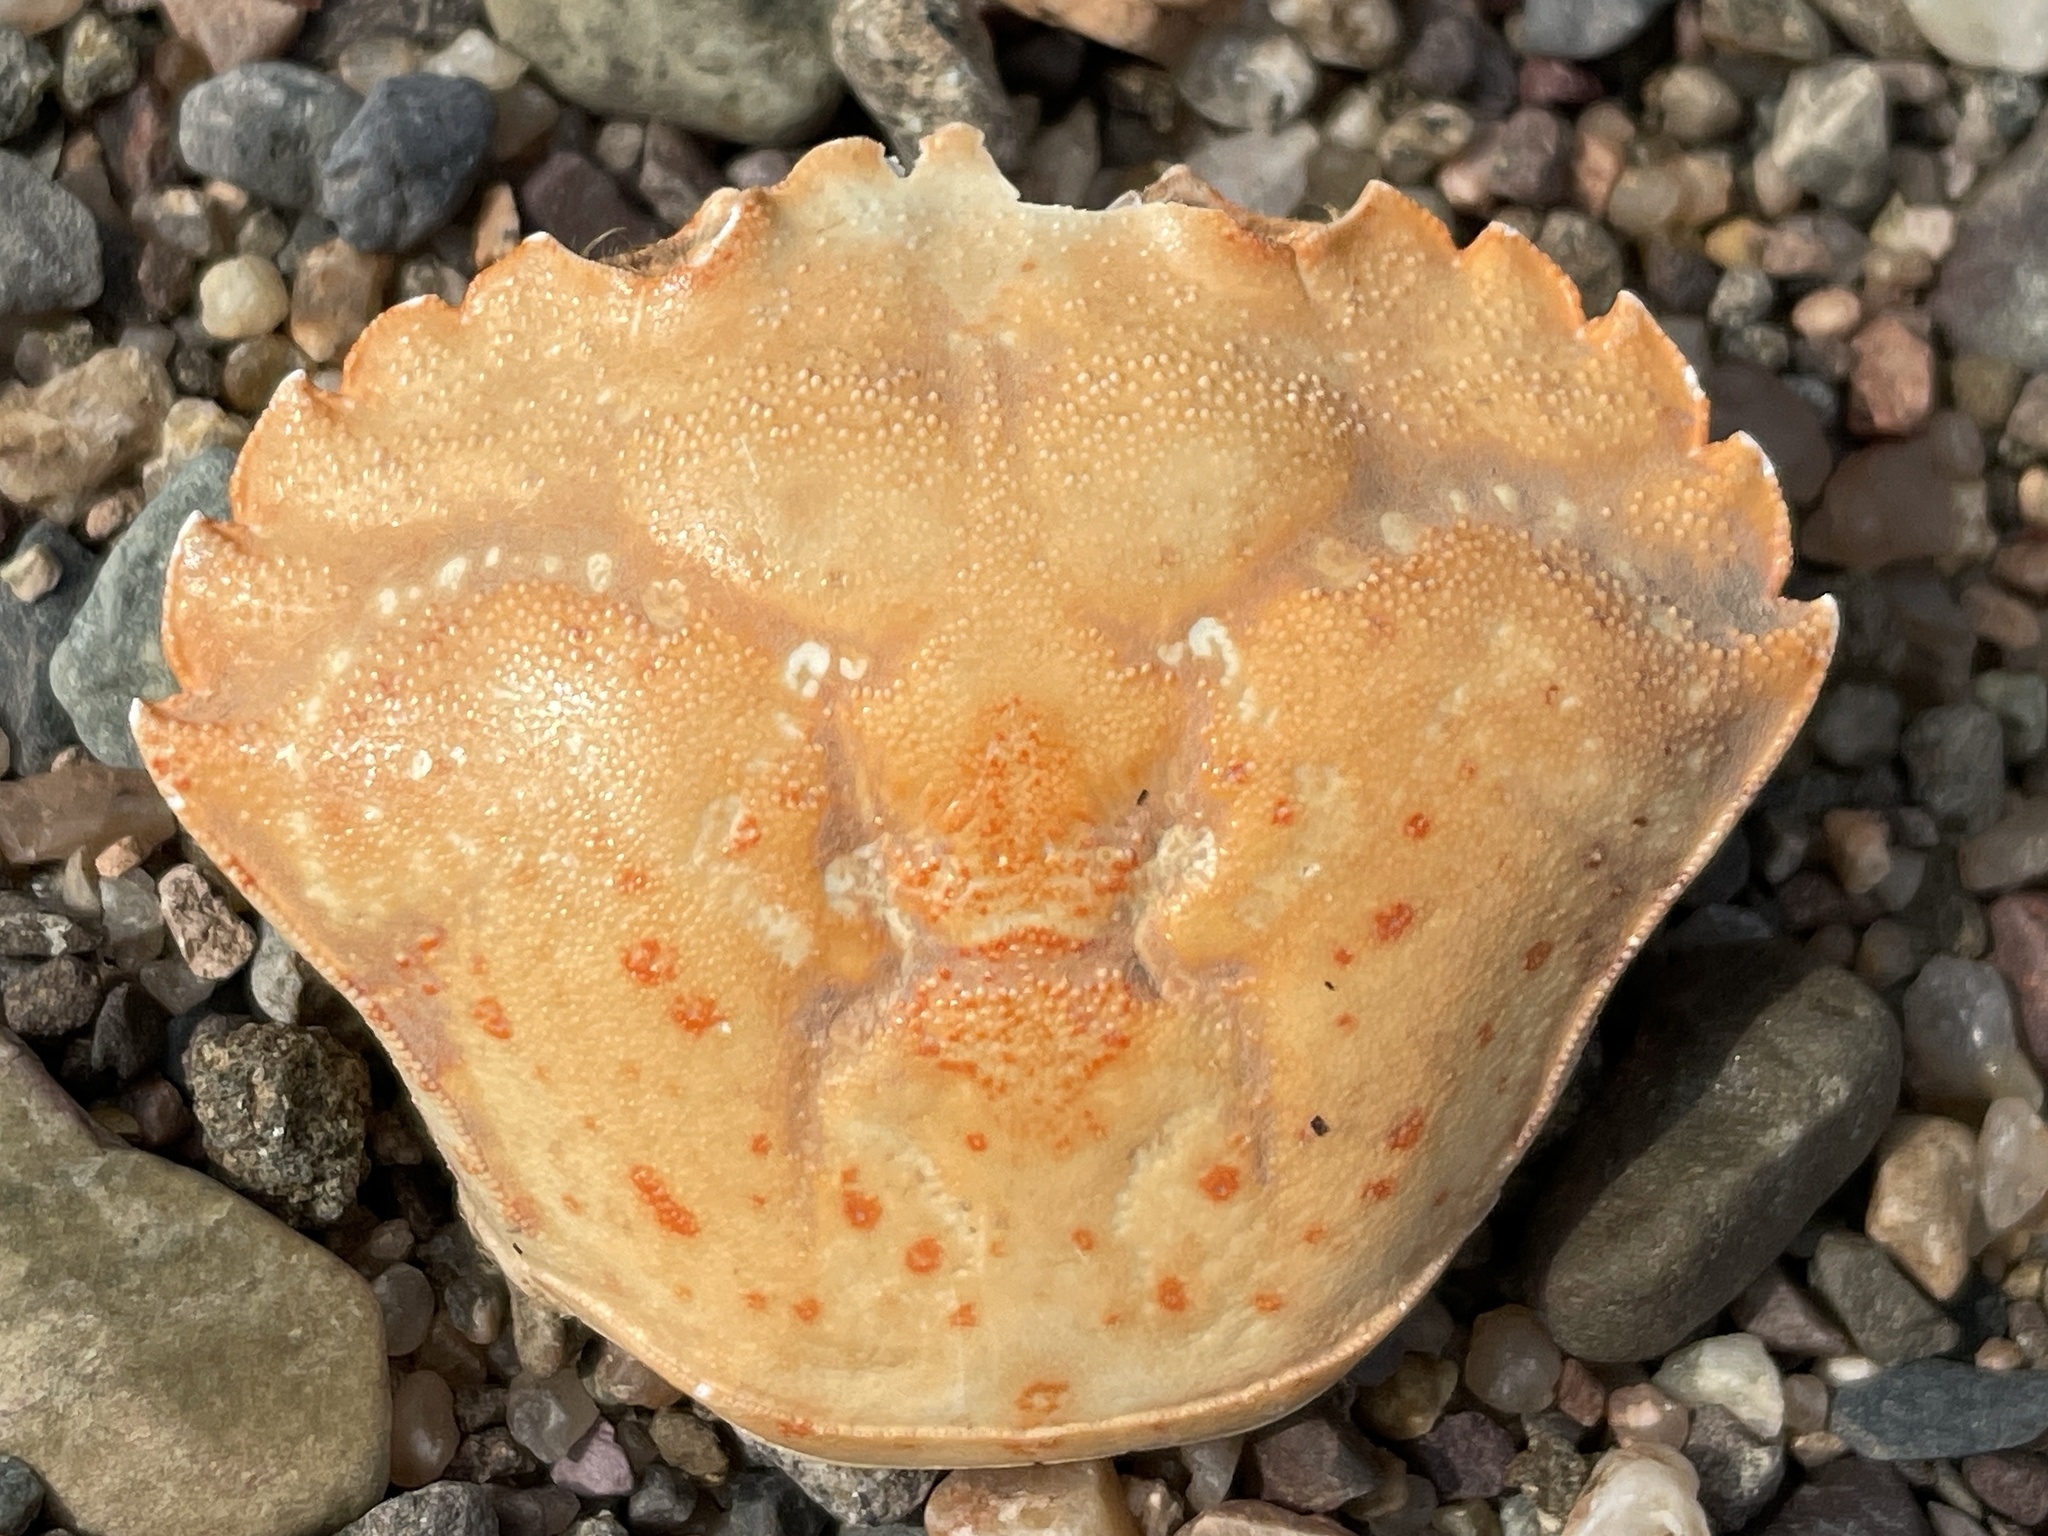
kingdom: Animalia
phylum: Arthropoda
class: Malacostraca
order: Decapoda
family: Carcinidae
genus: Carcinus
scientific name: Carcinus maenas
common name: European green crab
